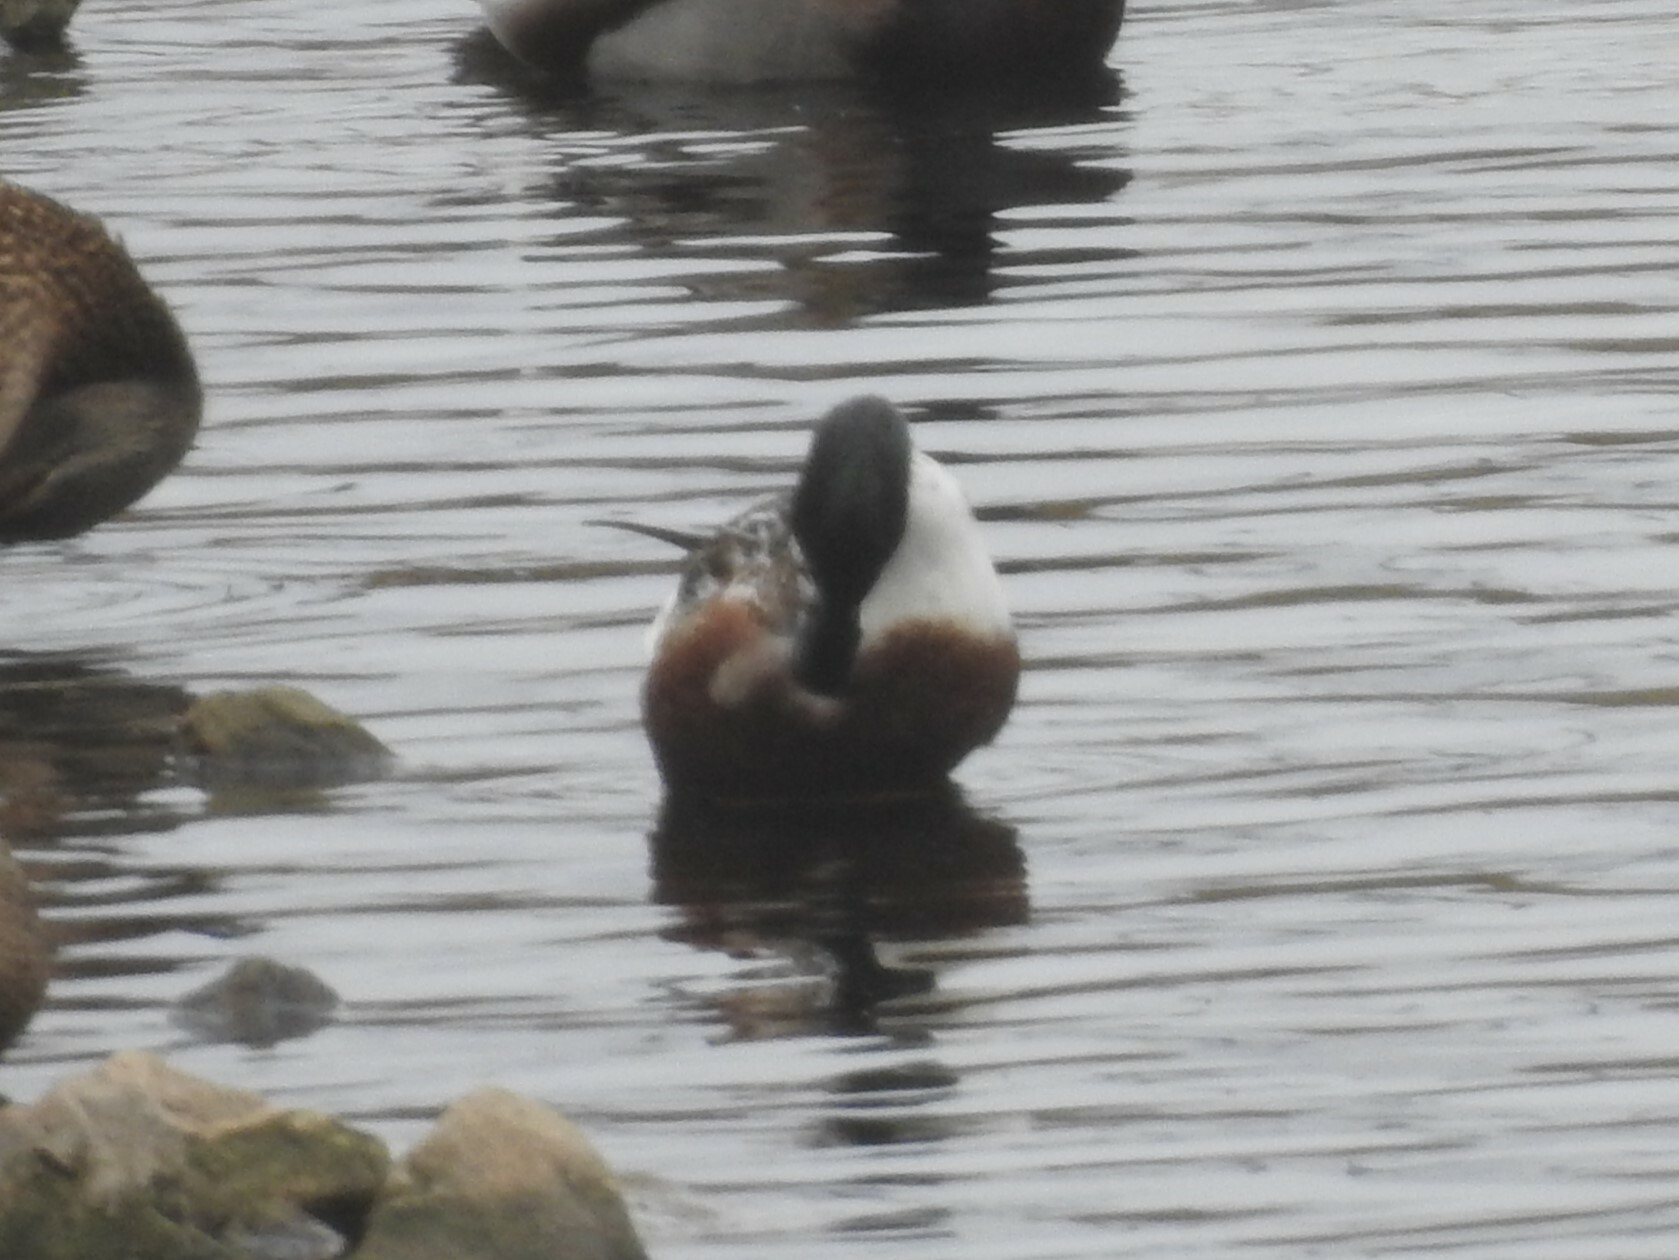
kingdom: Animalia
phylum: Chordata
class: Aves
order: Anseriformes
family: Anatidae
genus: Spatula
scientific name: Spatula clypeata
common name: Northern shoveler
